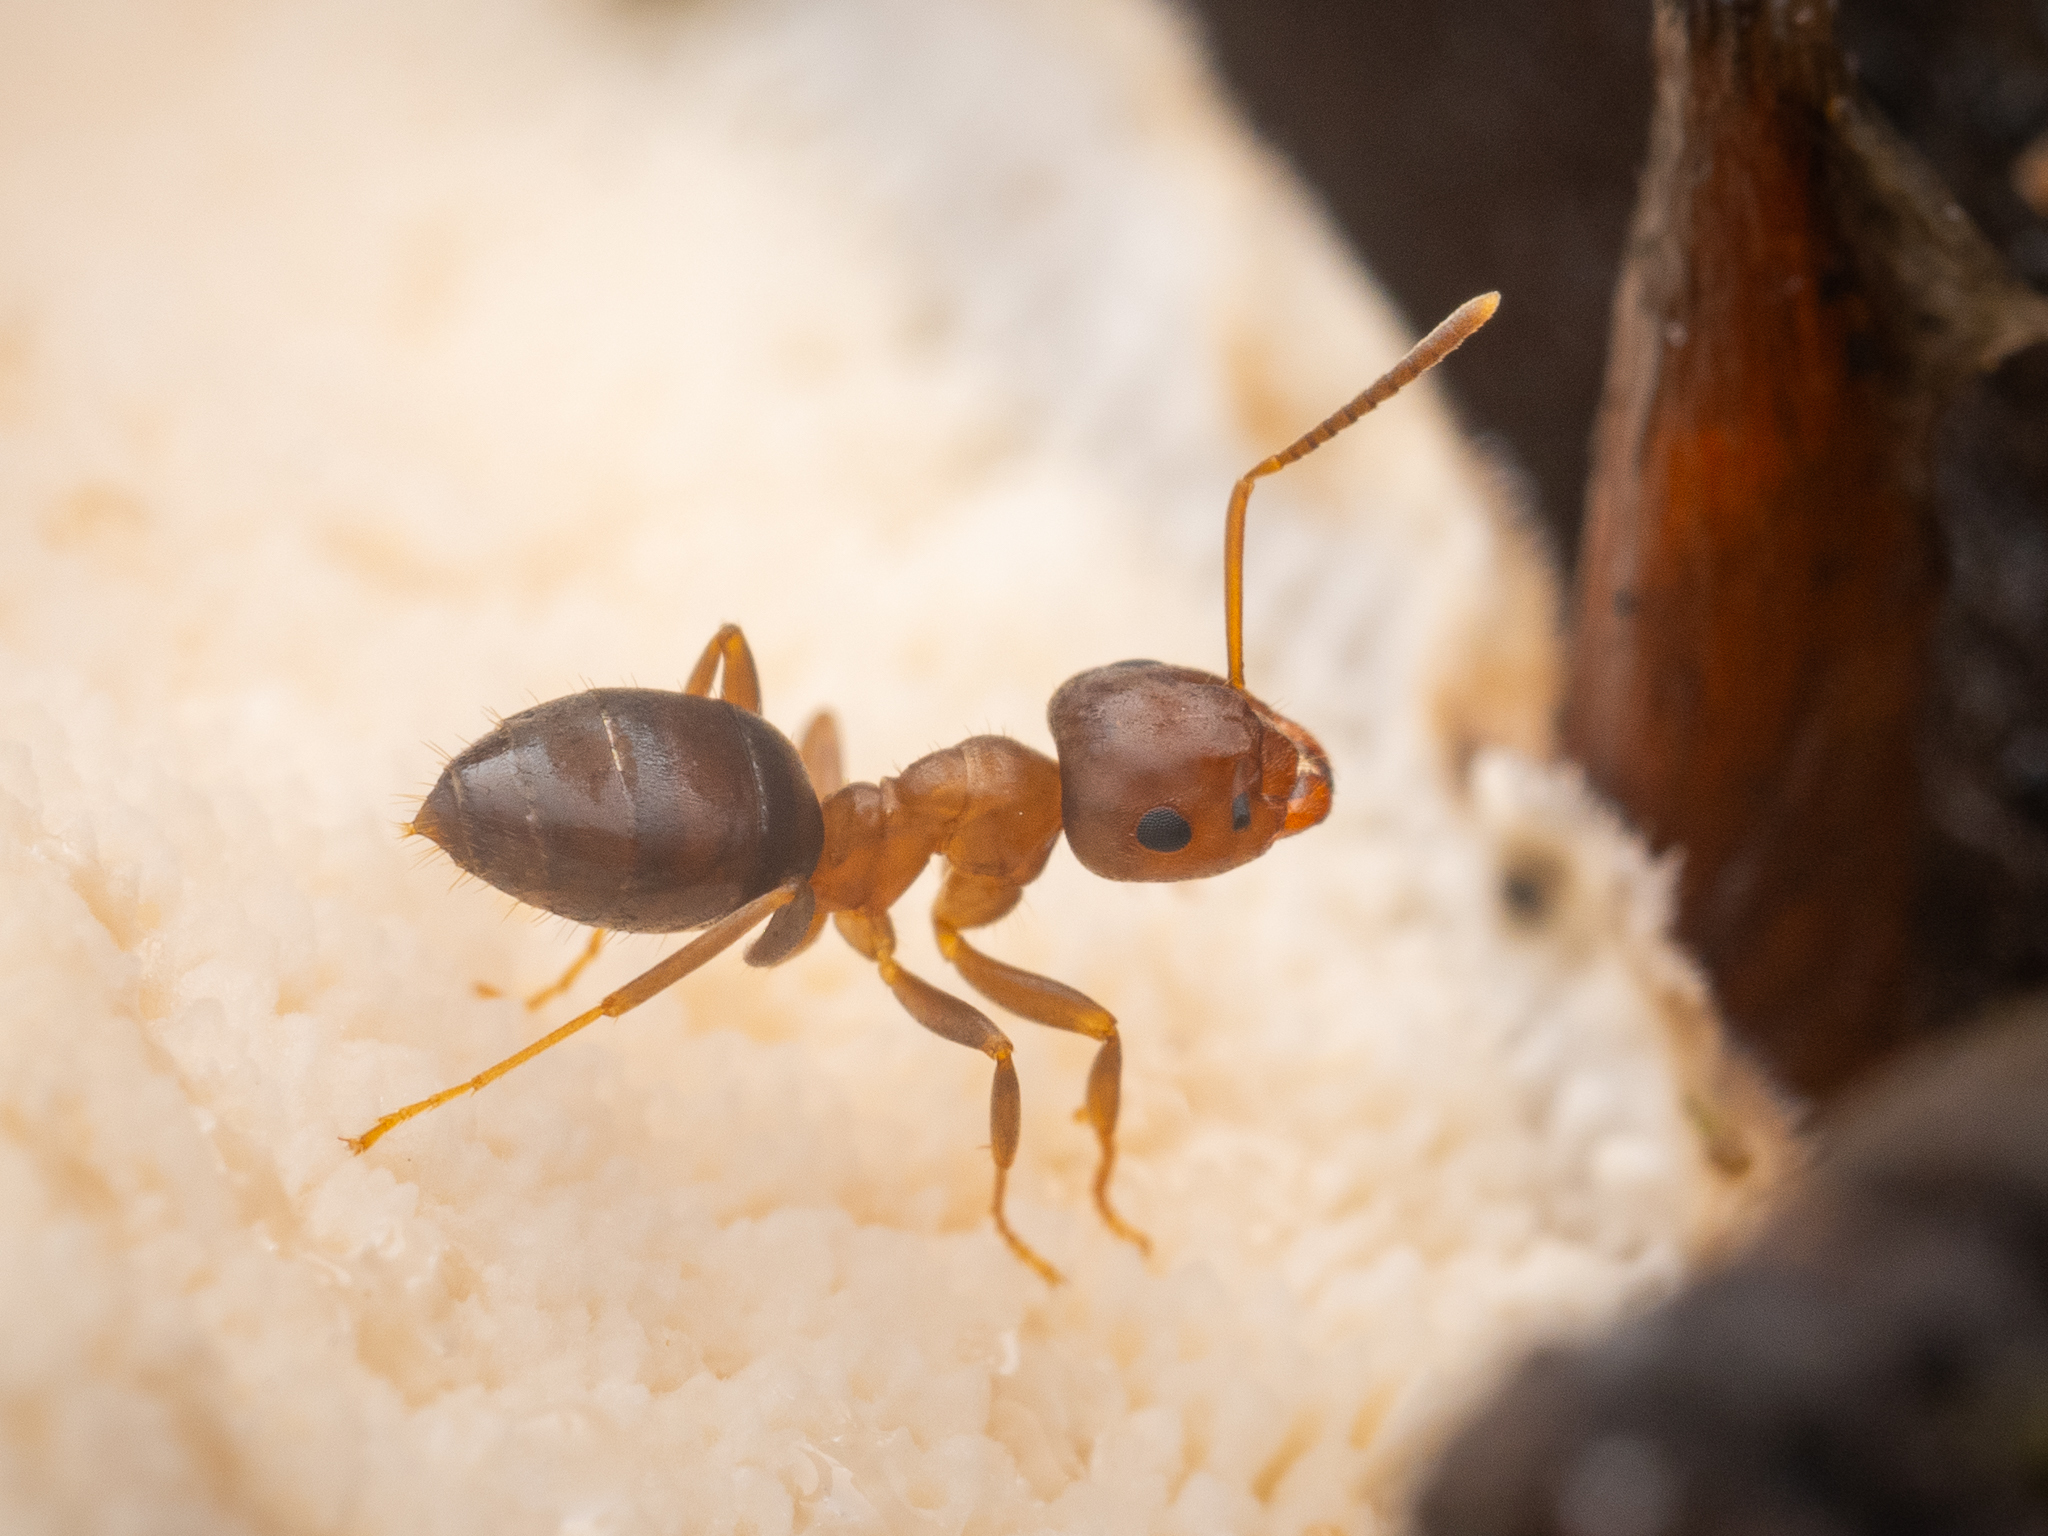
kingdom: Animalia
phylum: Arthropoda
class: Insecta
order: Hymenoptera
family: Formicidae
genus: Lasius
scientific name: Lasius brunneus
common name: Brown ant
